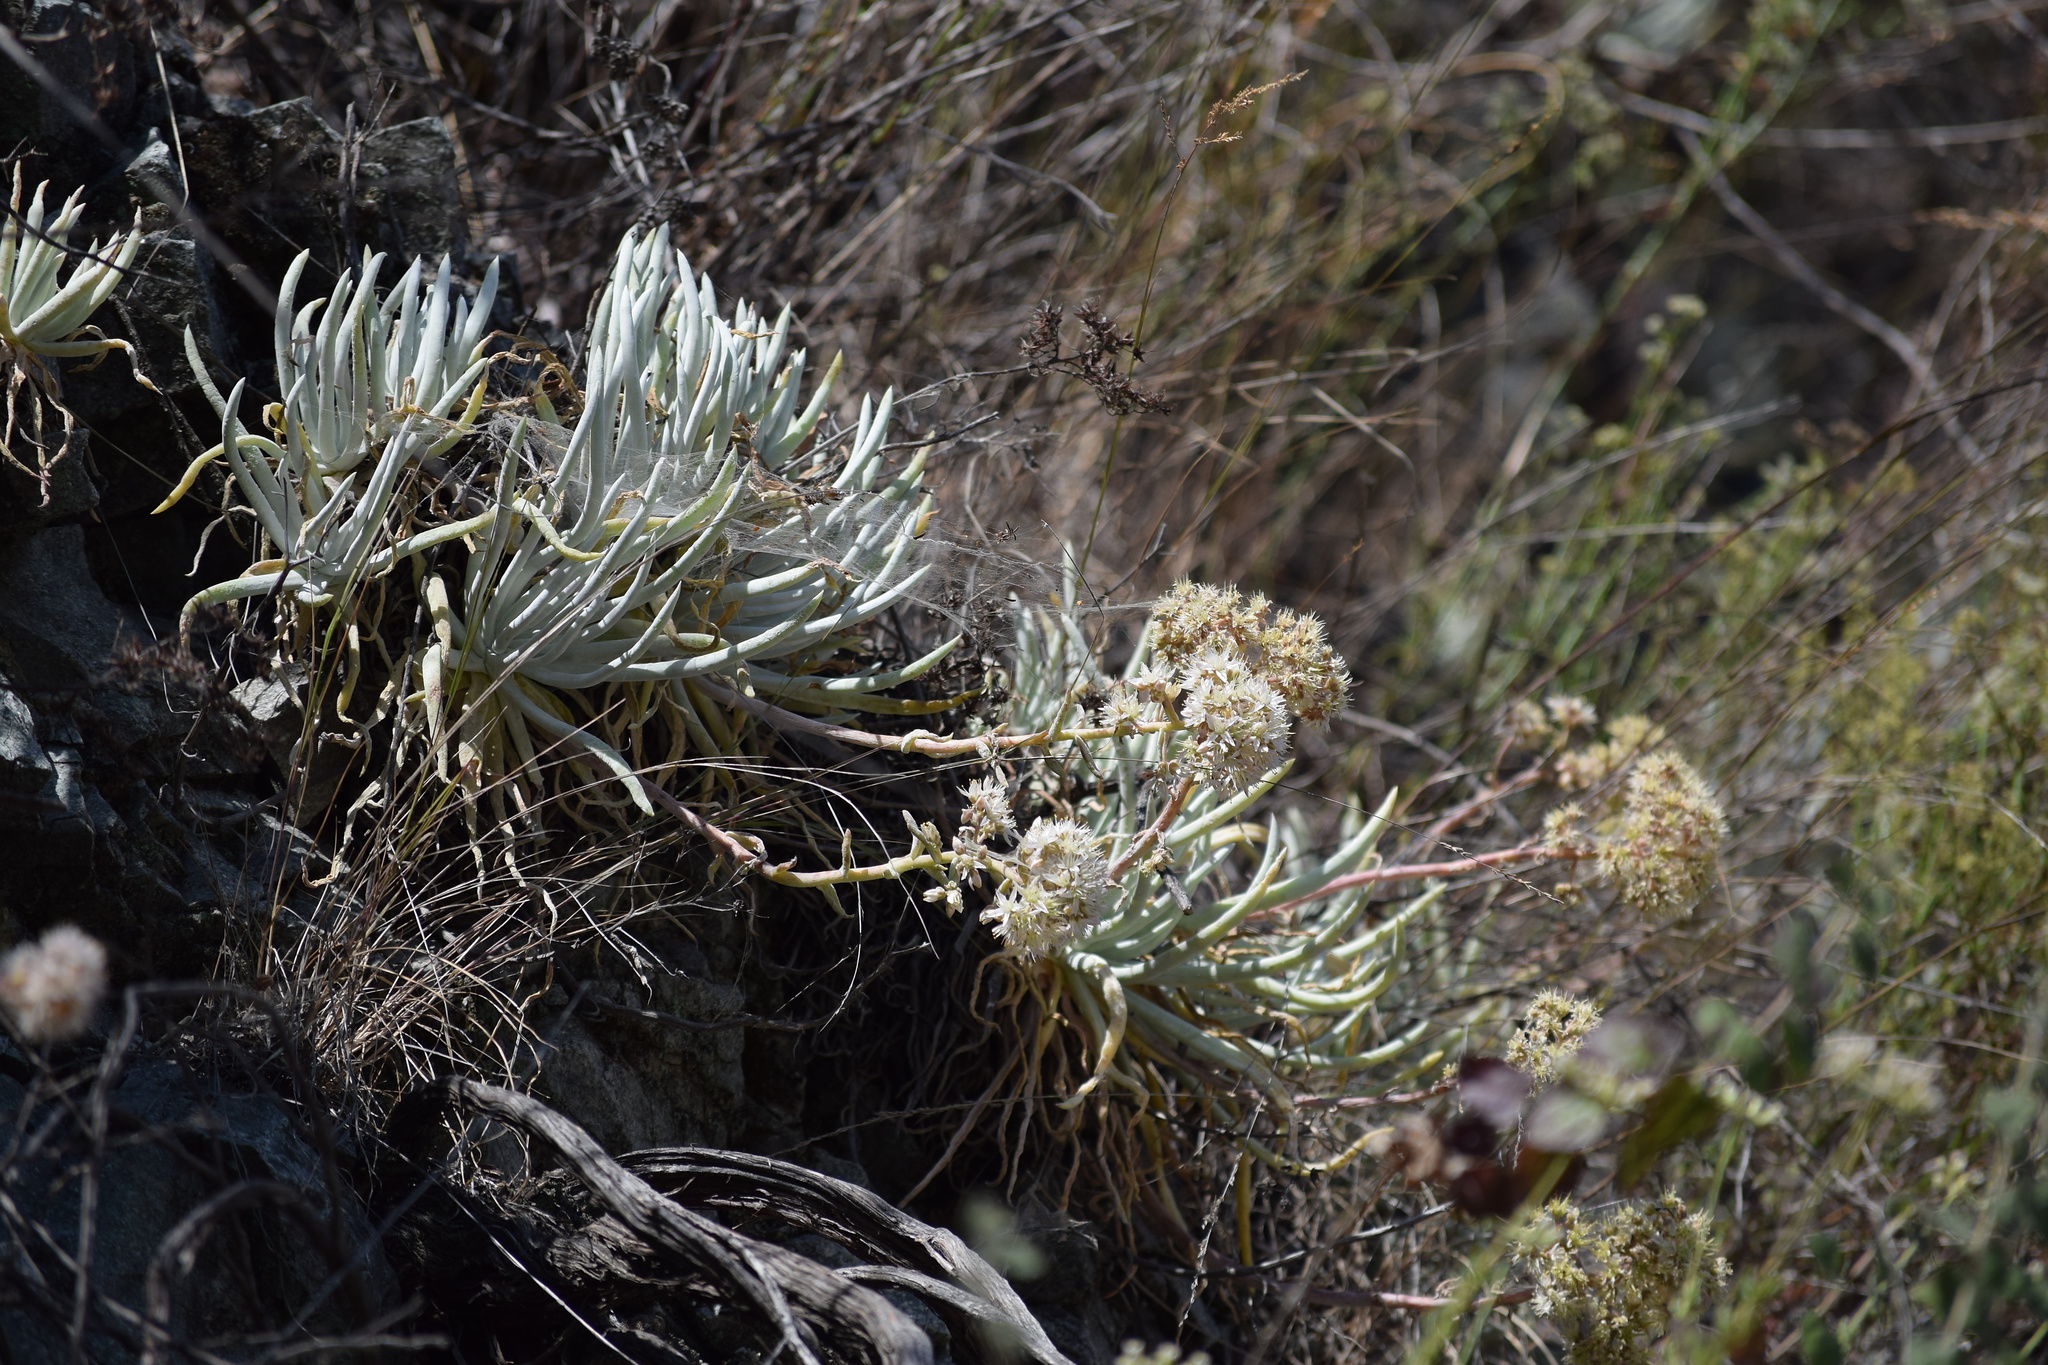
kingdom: Plantae
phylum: Tracheophyta
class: Magnoliopsida
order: Saxifragales
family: Crassulaceae
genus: Dudleya
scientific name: Dudleya densiflora
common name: San gabriel mountains dudleya
